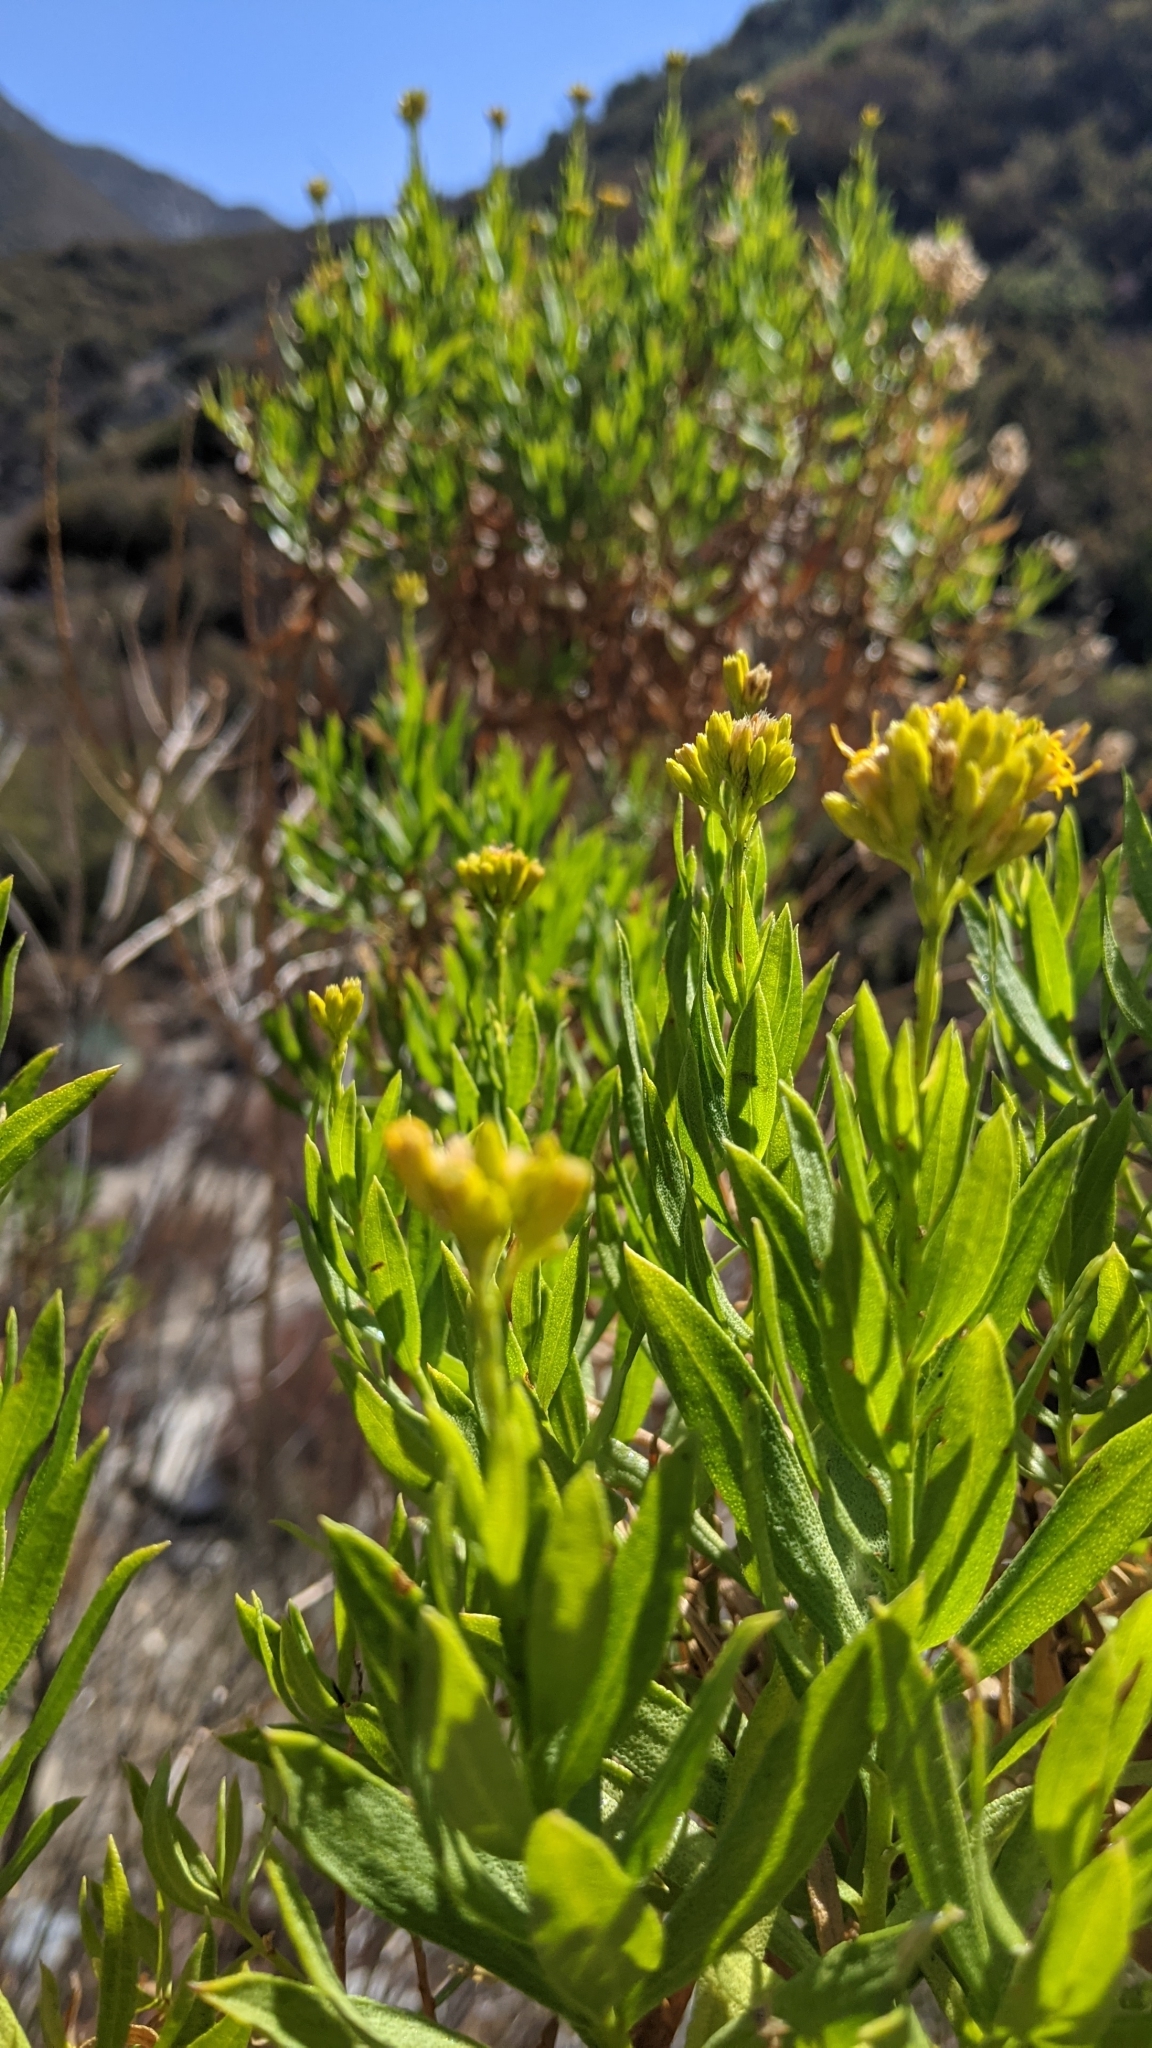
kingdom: Plantae
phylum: Tracheophyta
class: Magnoliopsida
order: Asterales
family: Asteraceae
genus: Ericameria
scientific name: Ericameria parishii
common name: Parish's goldenbush
